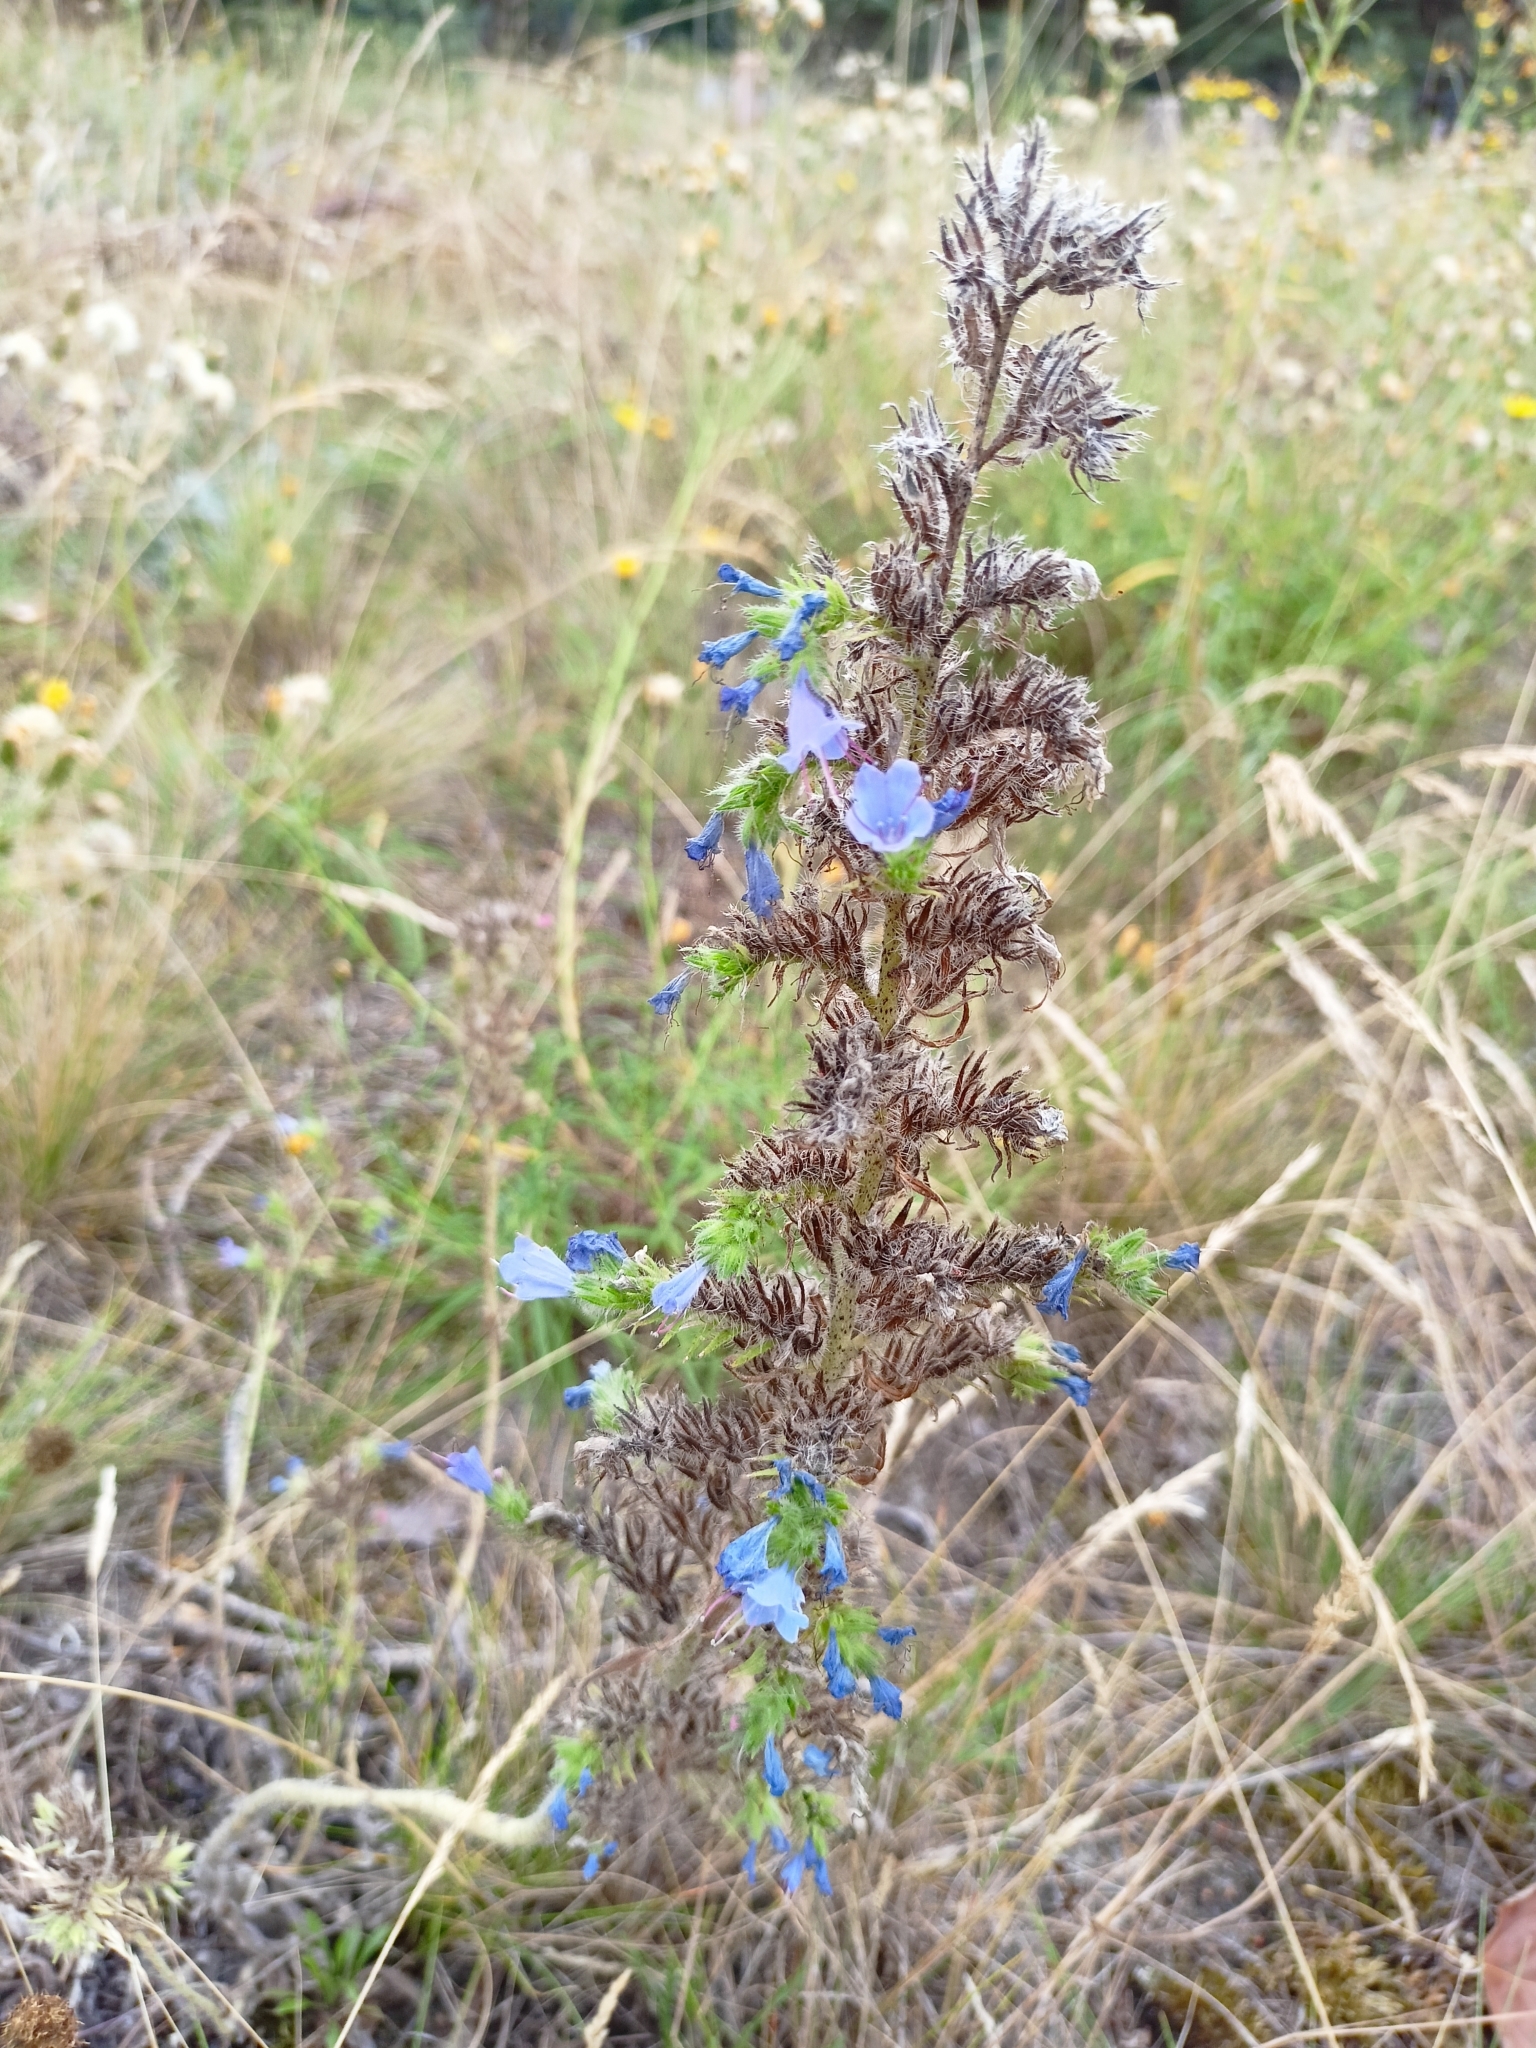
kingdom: Plantae
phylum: Tracheophyta
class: Magnoliopsida
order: Boraginales
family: Boraginaceae
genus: Echium
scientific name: Echium vulgare
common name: Common viper's bugloss
